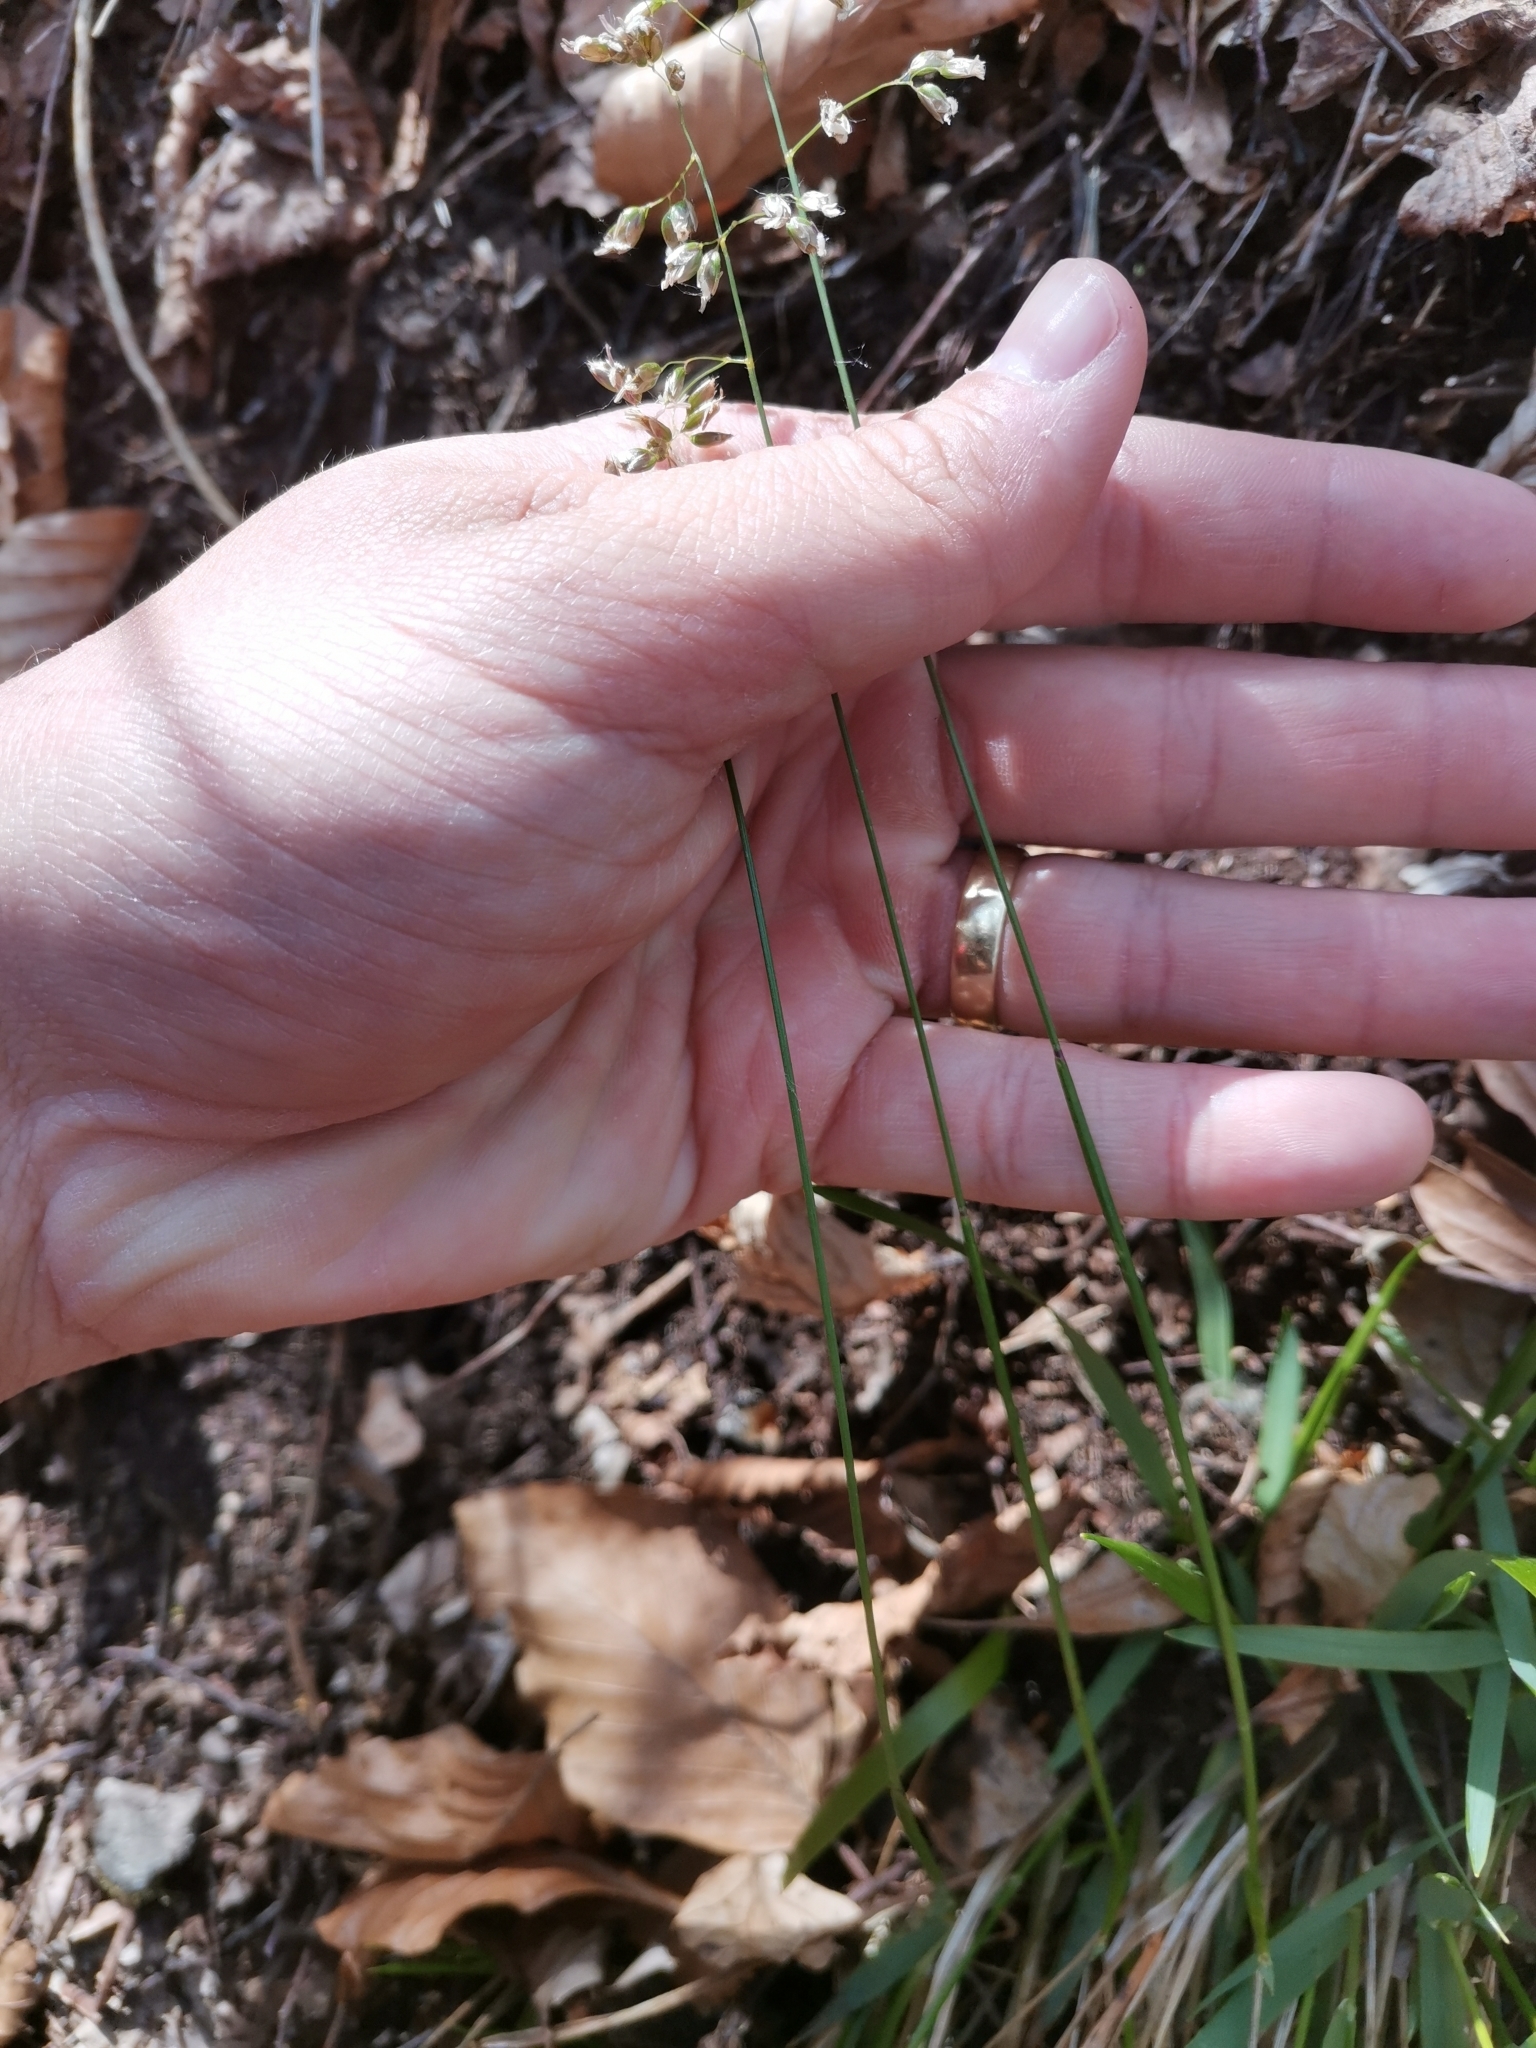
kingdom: Plantae
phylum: Tracheophyta
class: Liliopsida
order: Poales
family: Poaceae
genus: Anthoxanthum
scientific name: Anthoxanthum australe
